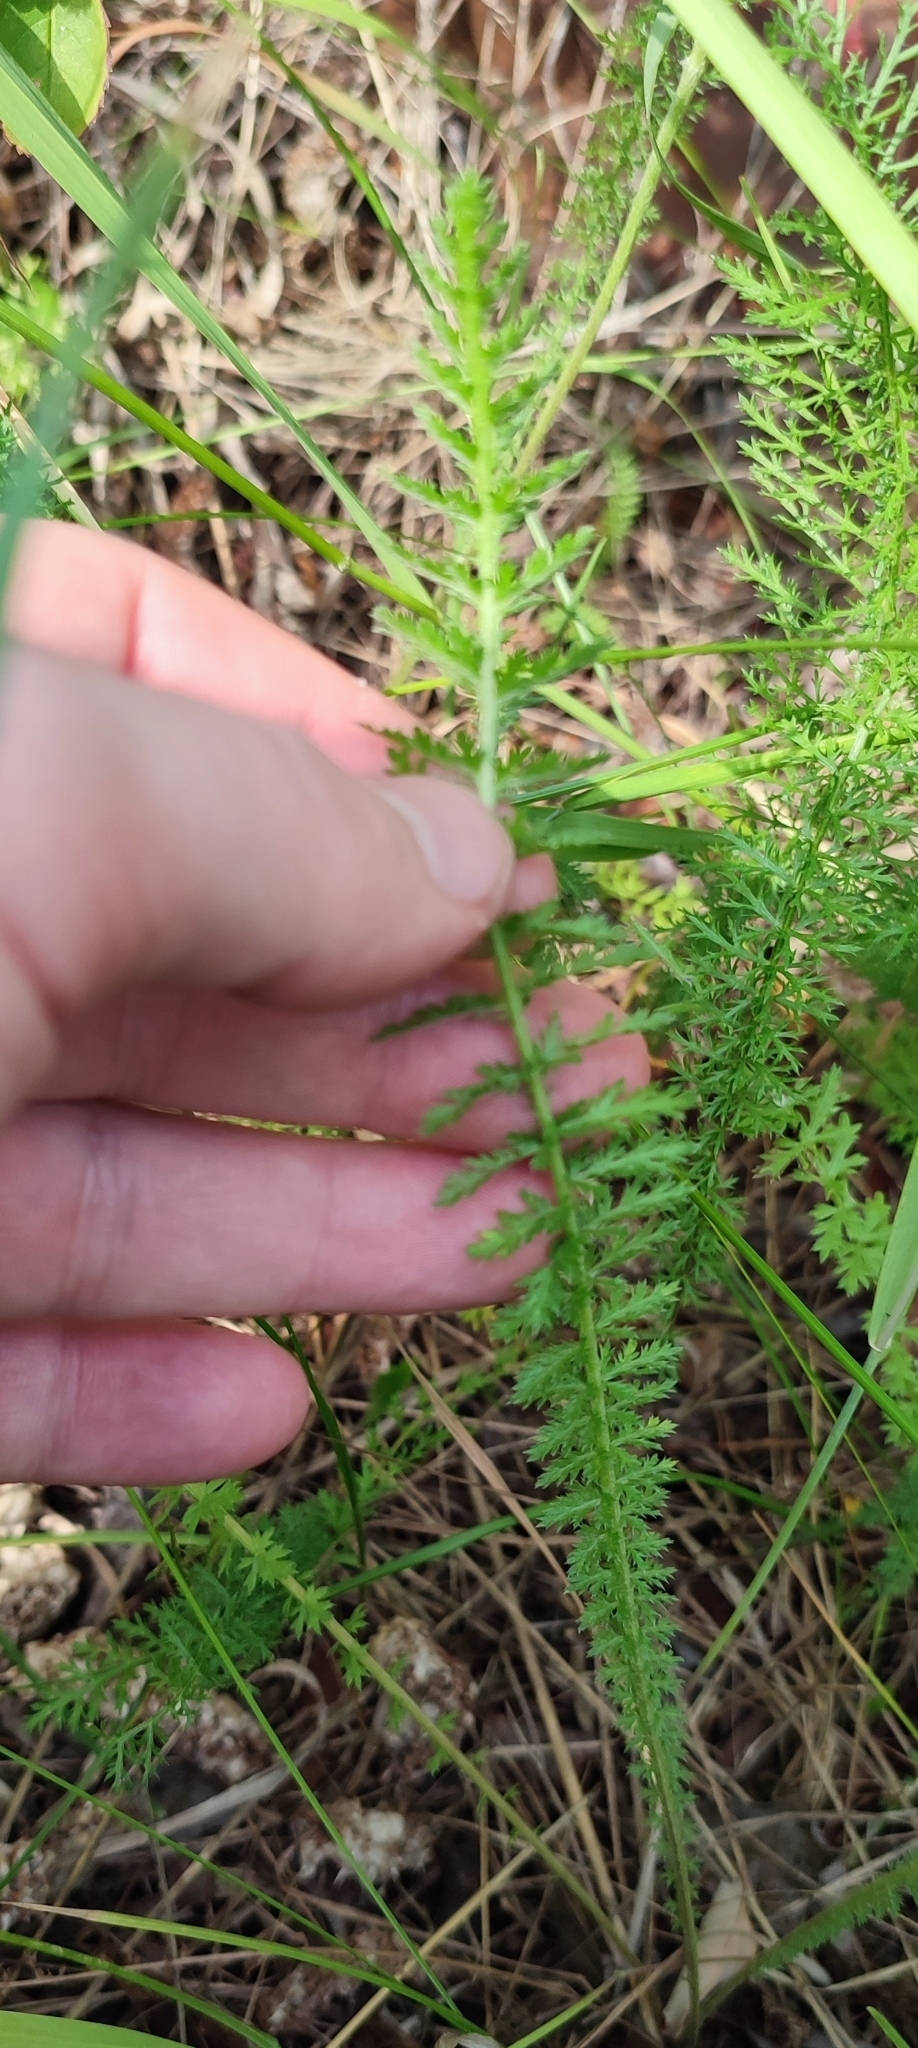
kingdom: Plantae
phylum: Tracheophyta
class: Magnoliopsida
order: Asterales
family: Asteraceae
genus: Achillea
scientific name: Achillea
